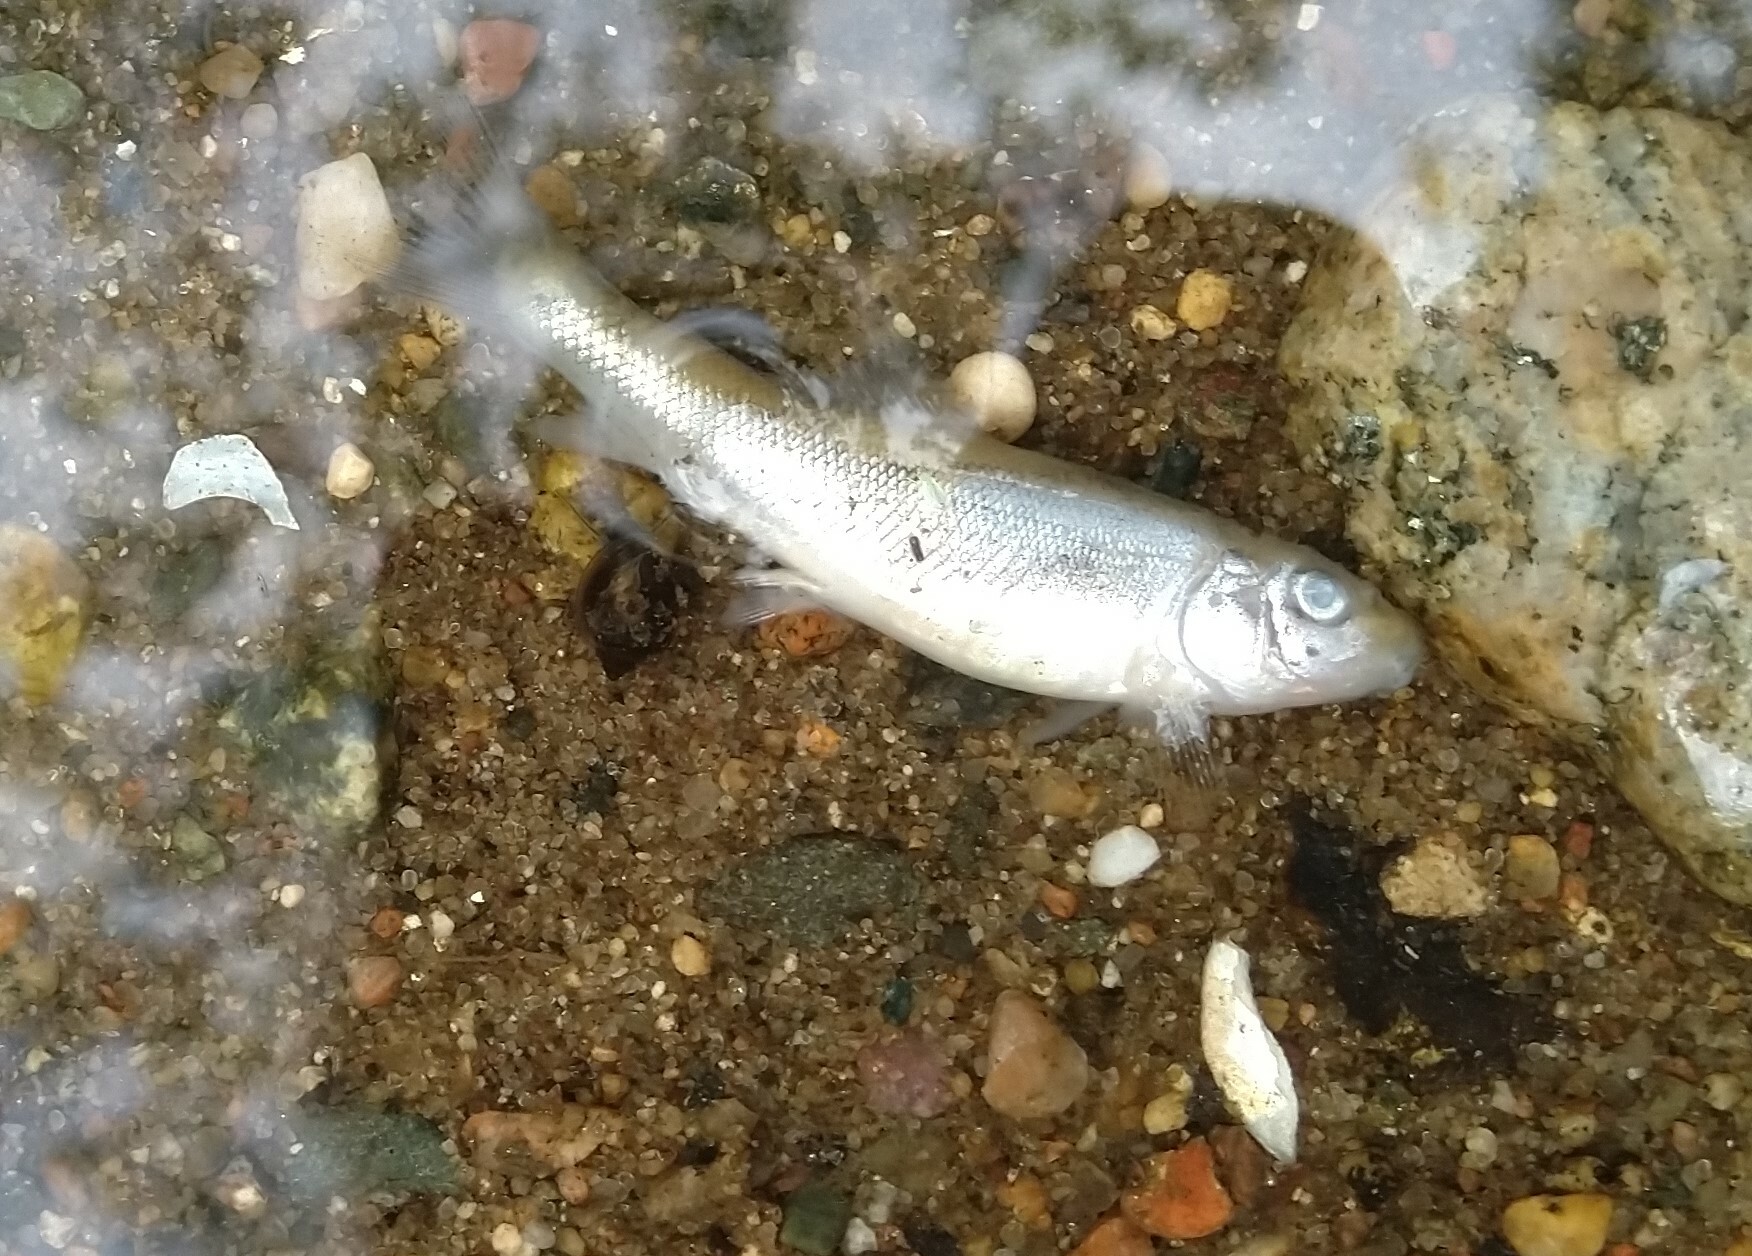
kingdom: Animalia
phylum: Chordata
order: Cypriniformes
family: Catostomidae
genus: Catostomus
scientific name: Catostomus commersonii
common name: White sucker
